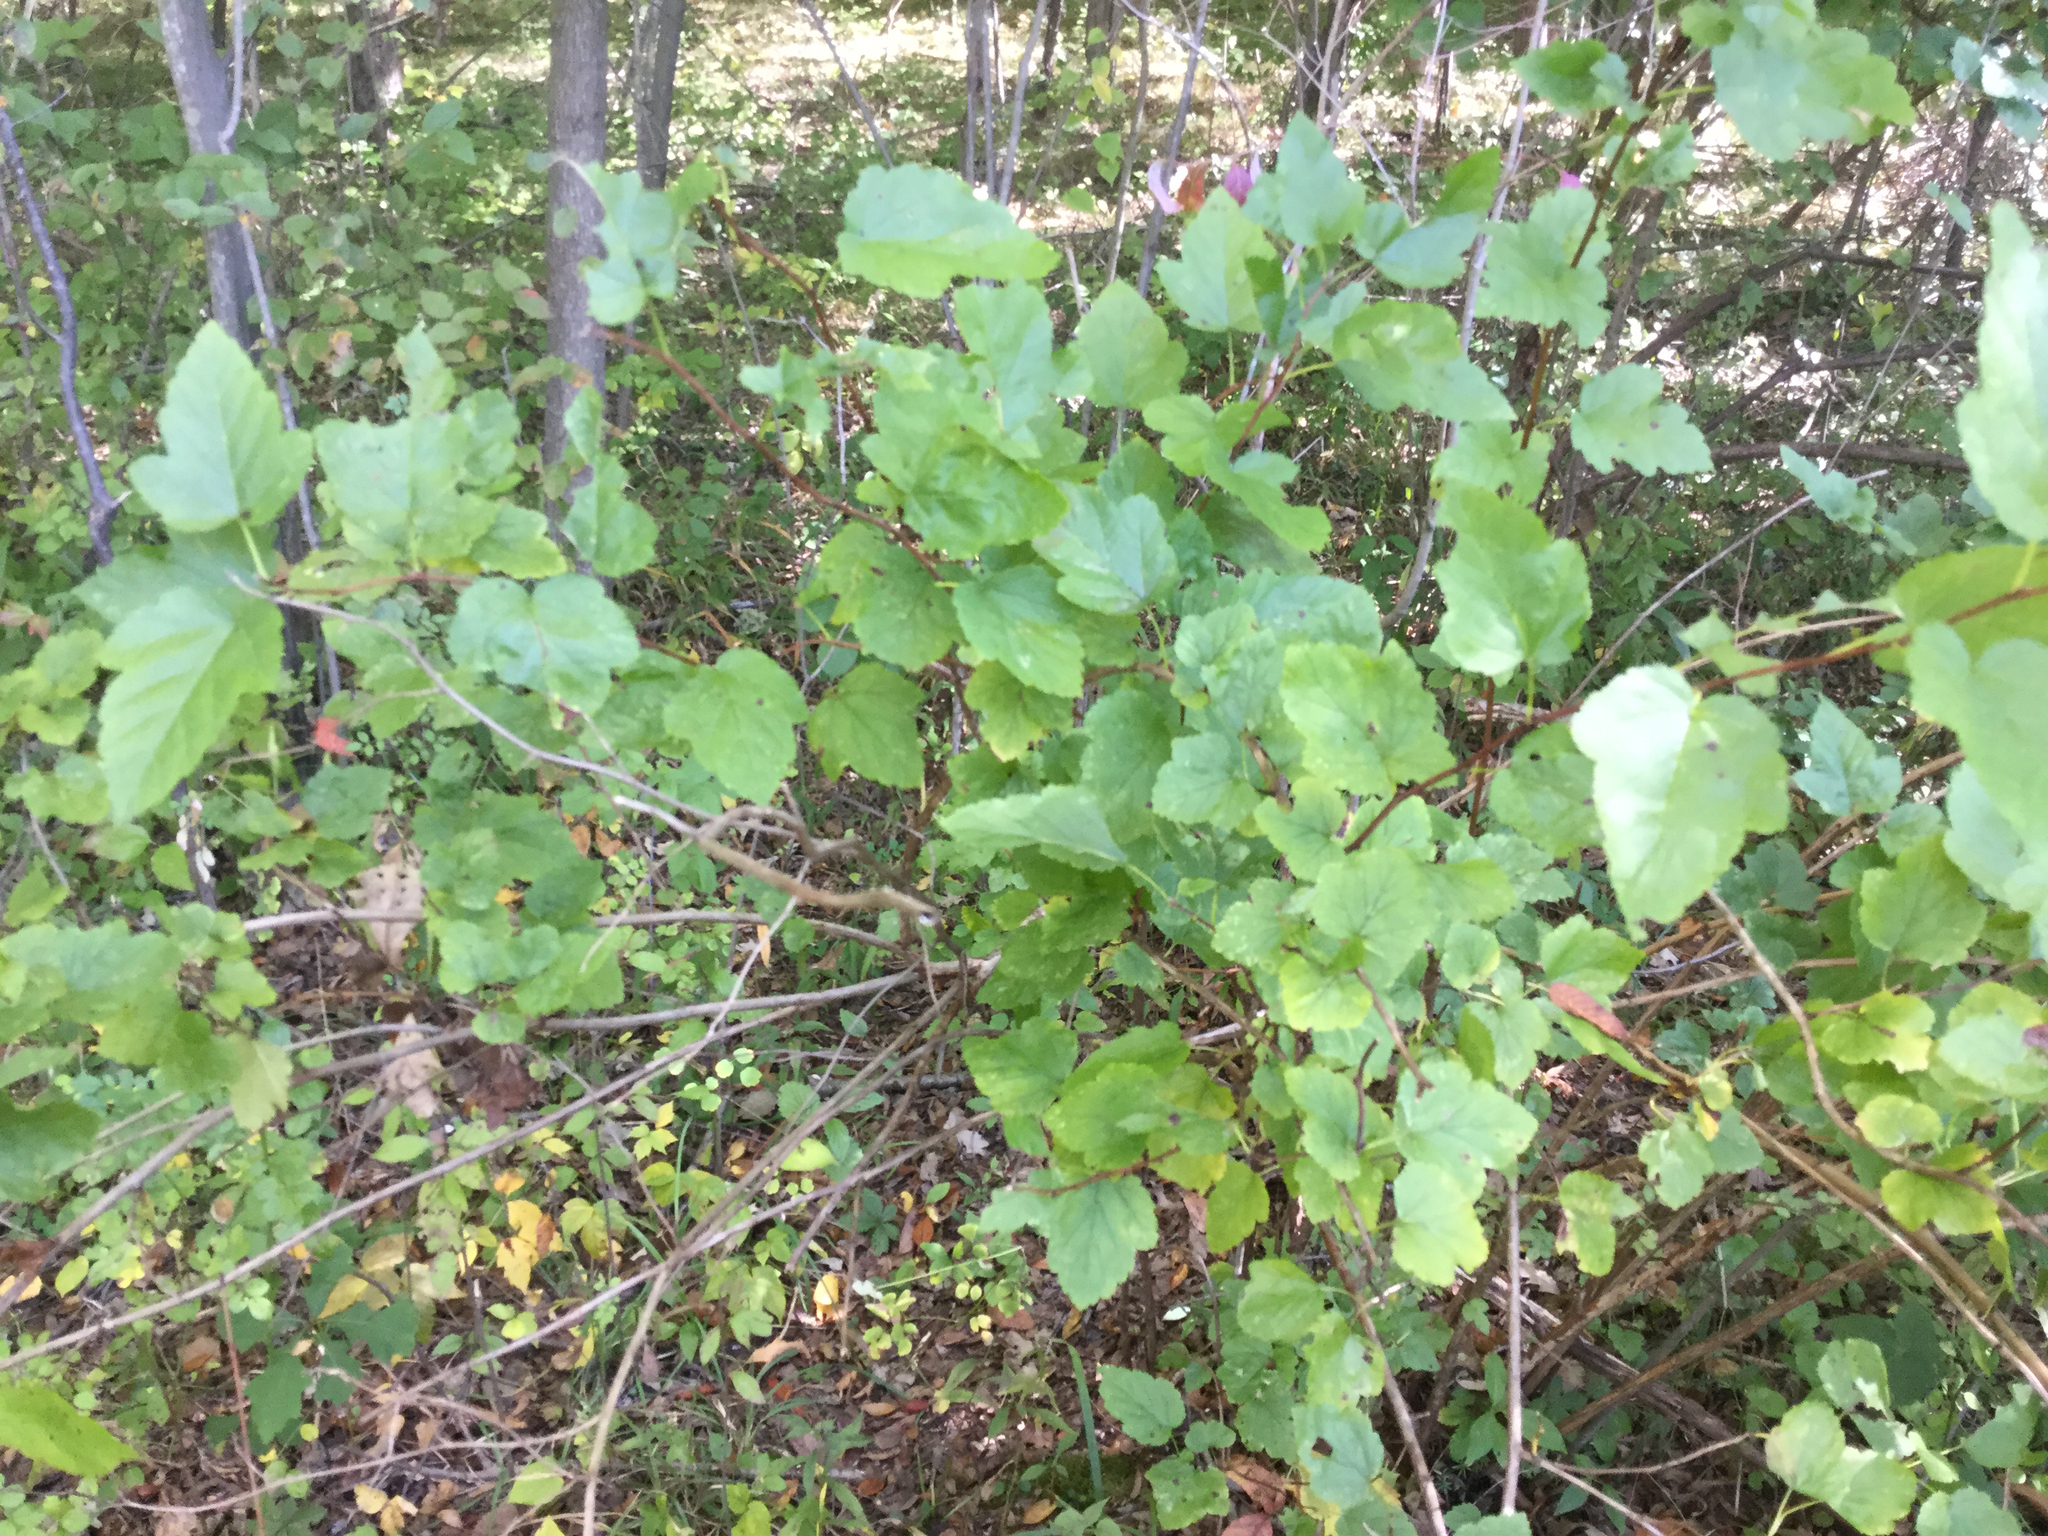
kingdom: Plantae
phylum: Tracheophyta
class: Magnoliopsida
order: Rosales
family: Rosaceae
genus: Physocarpus
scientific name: Physocarpus opulifolius
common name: Ninebark
